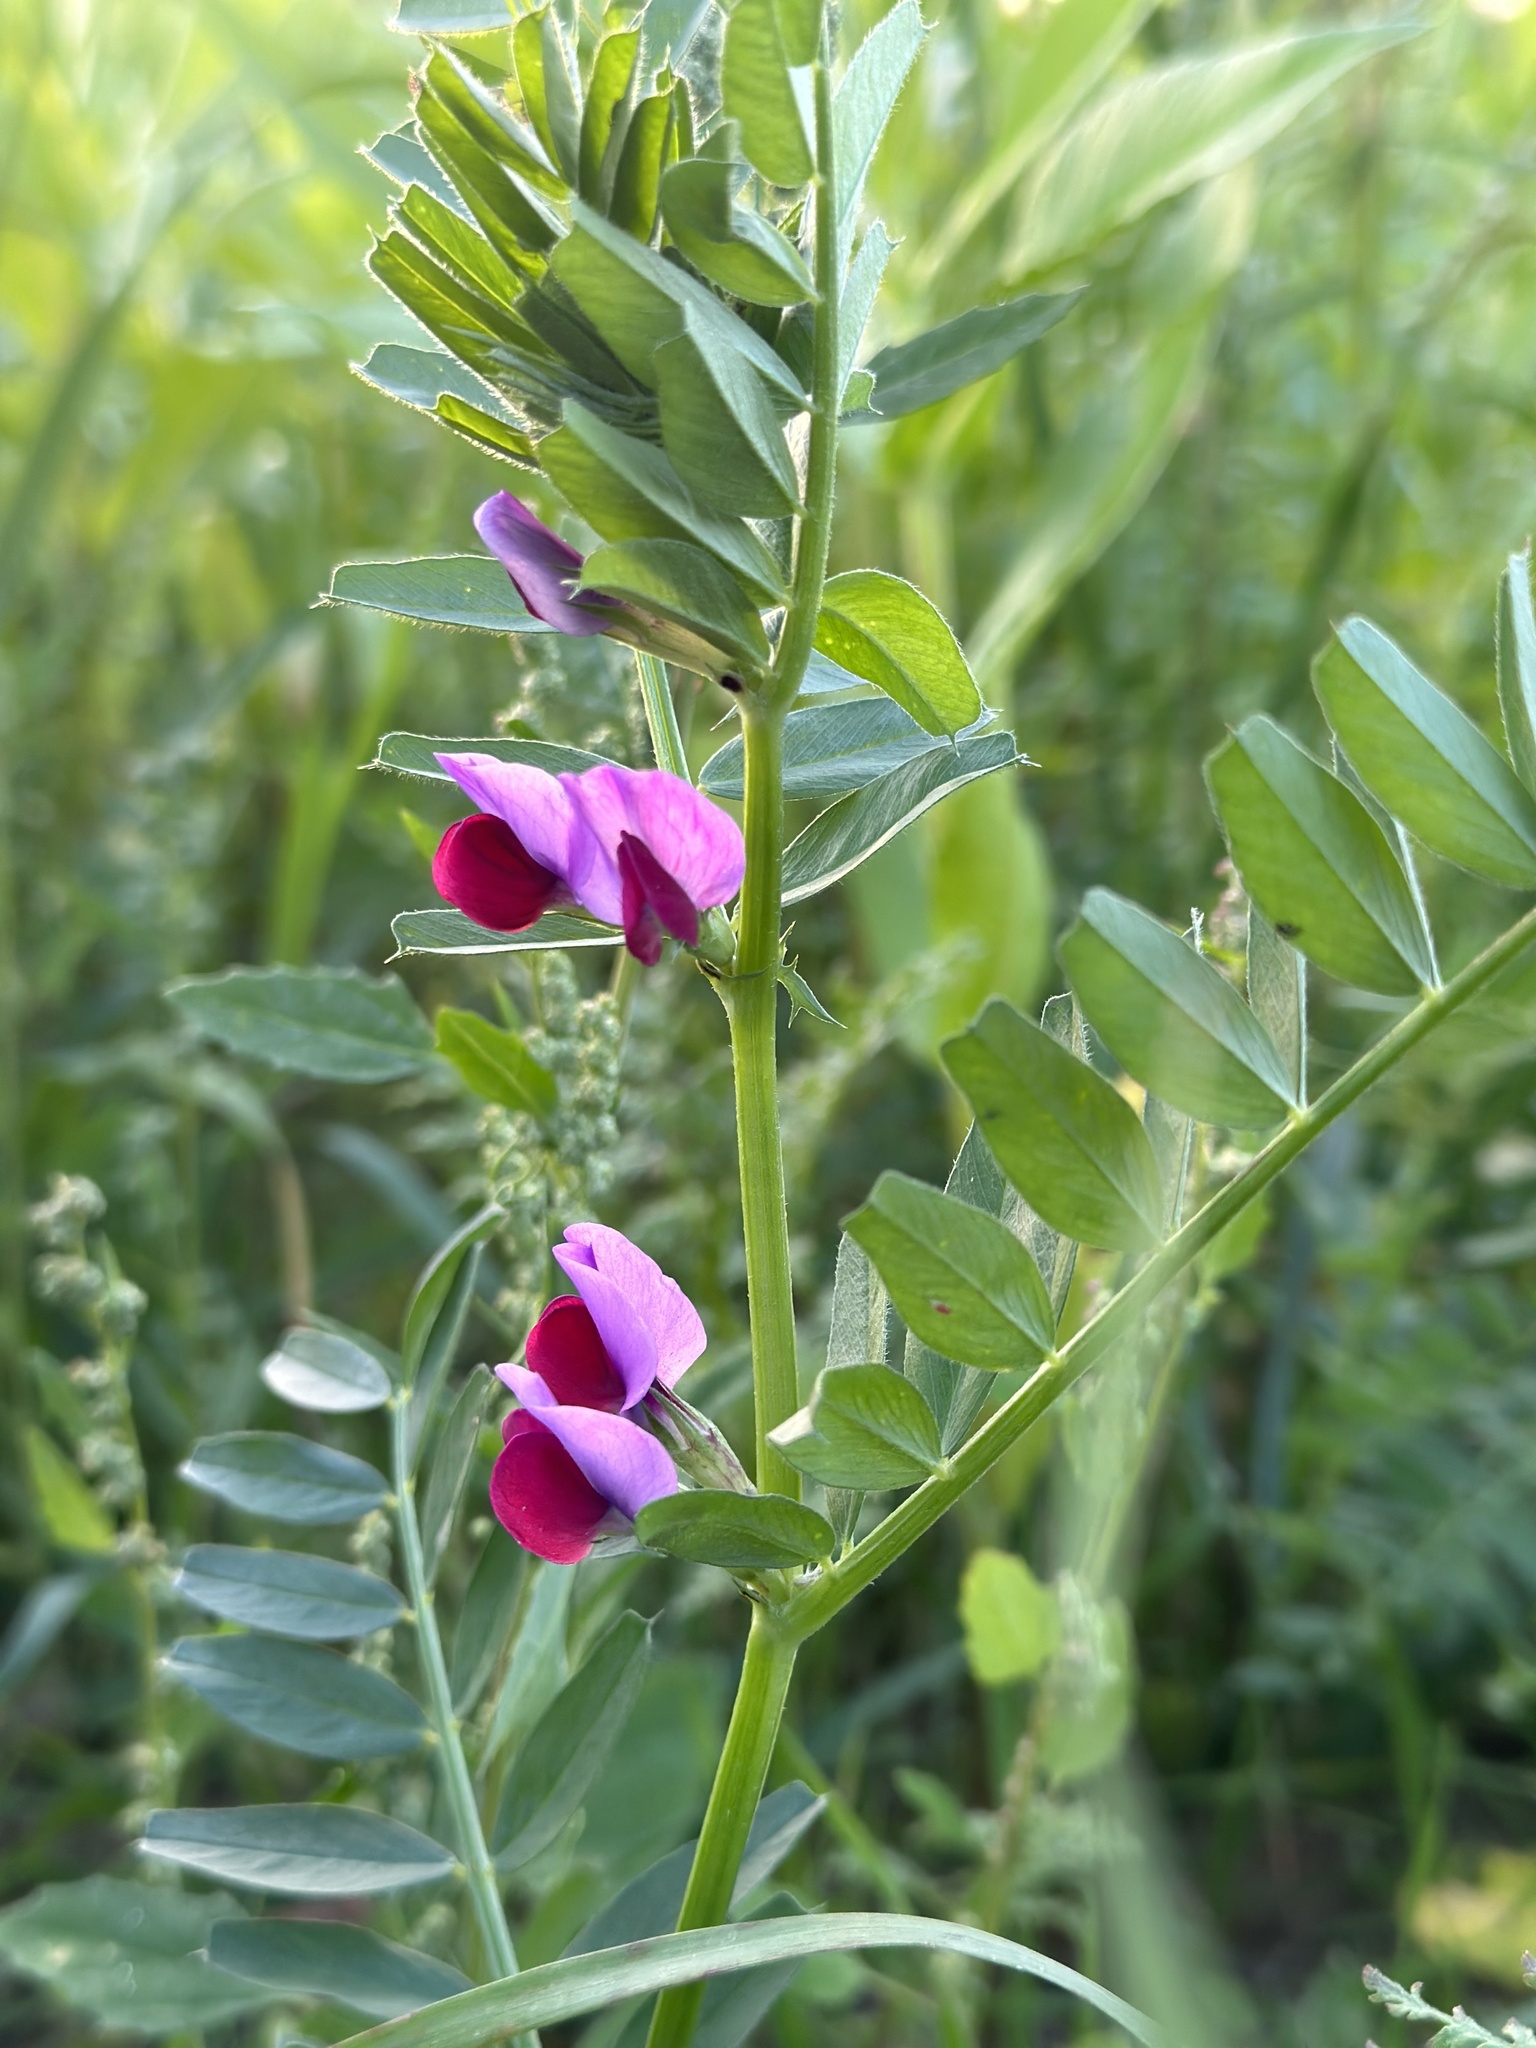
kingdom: Plantae
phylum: Tracheophyta
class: Magnoliopsida
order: Fabales
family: Fabaceae
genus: Vicia
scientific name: Vicia sativa
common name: Garden vetch
